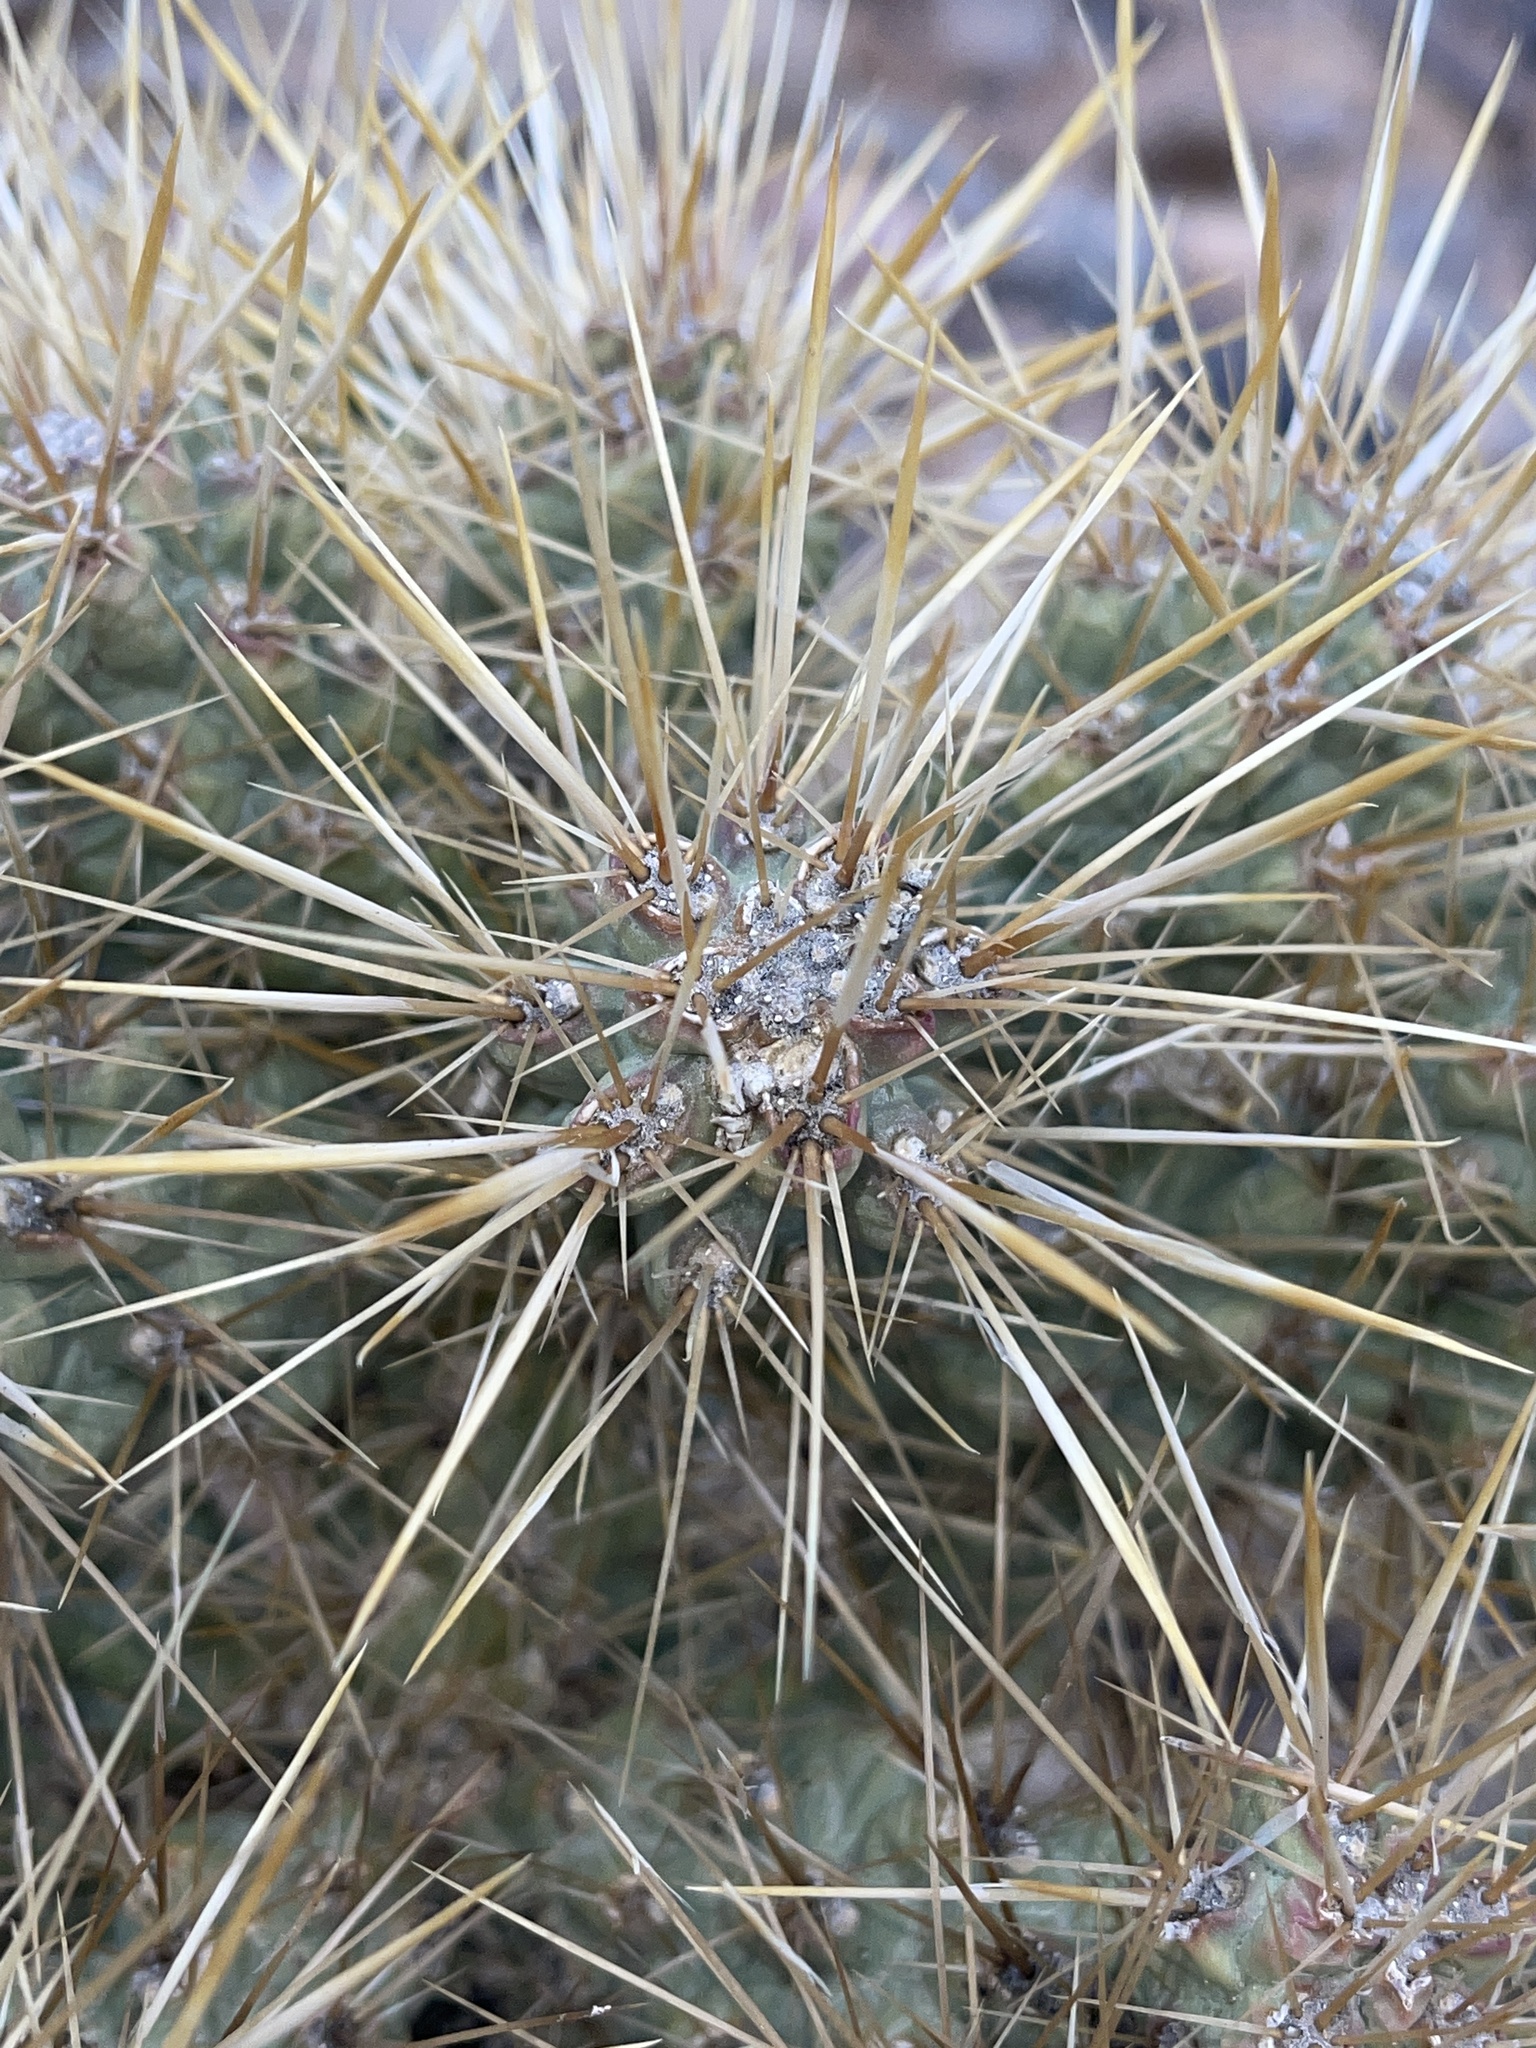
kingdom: Plantae
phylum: Tracheophyta
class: Magnoliopsida
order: Caryophyllales
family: Cactaceae
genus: Cylindropuntia
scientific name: Cylindropuntia echinocarpa
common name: Ground cholla
